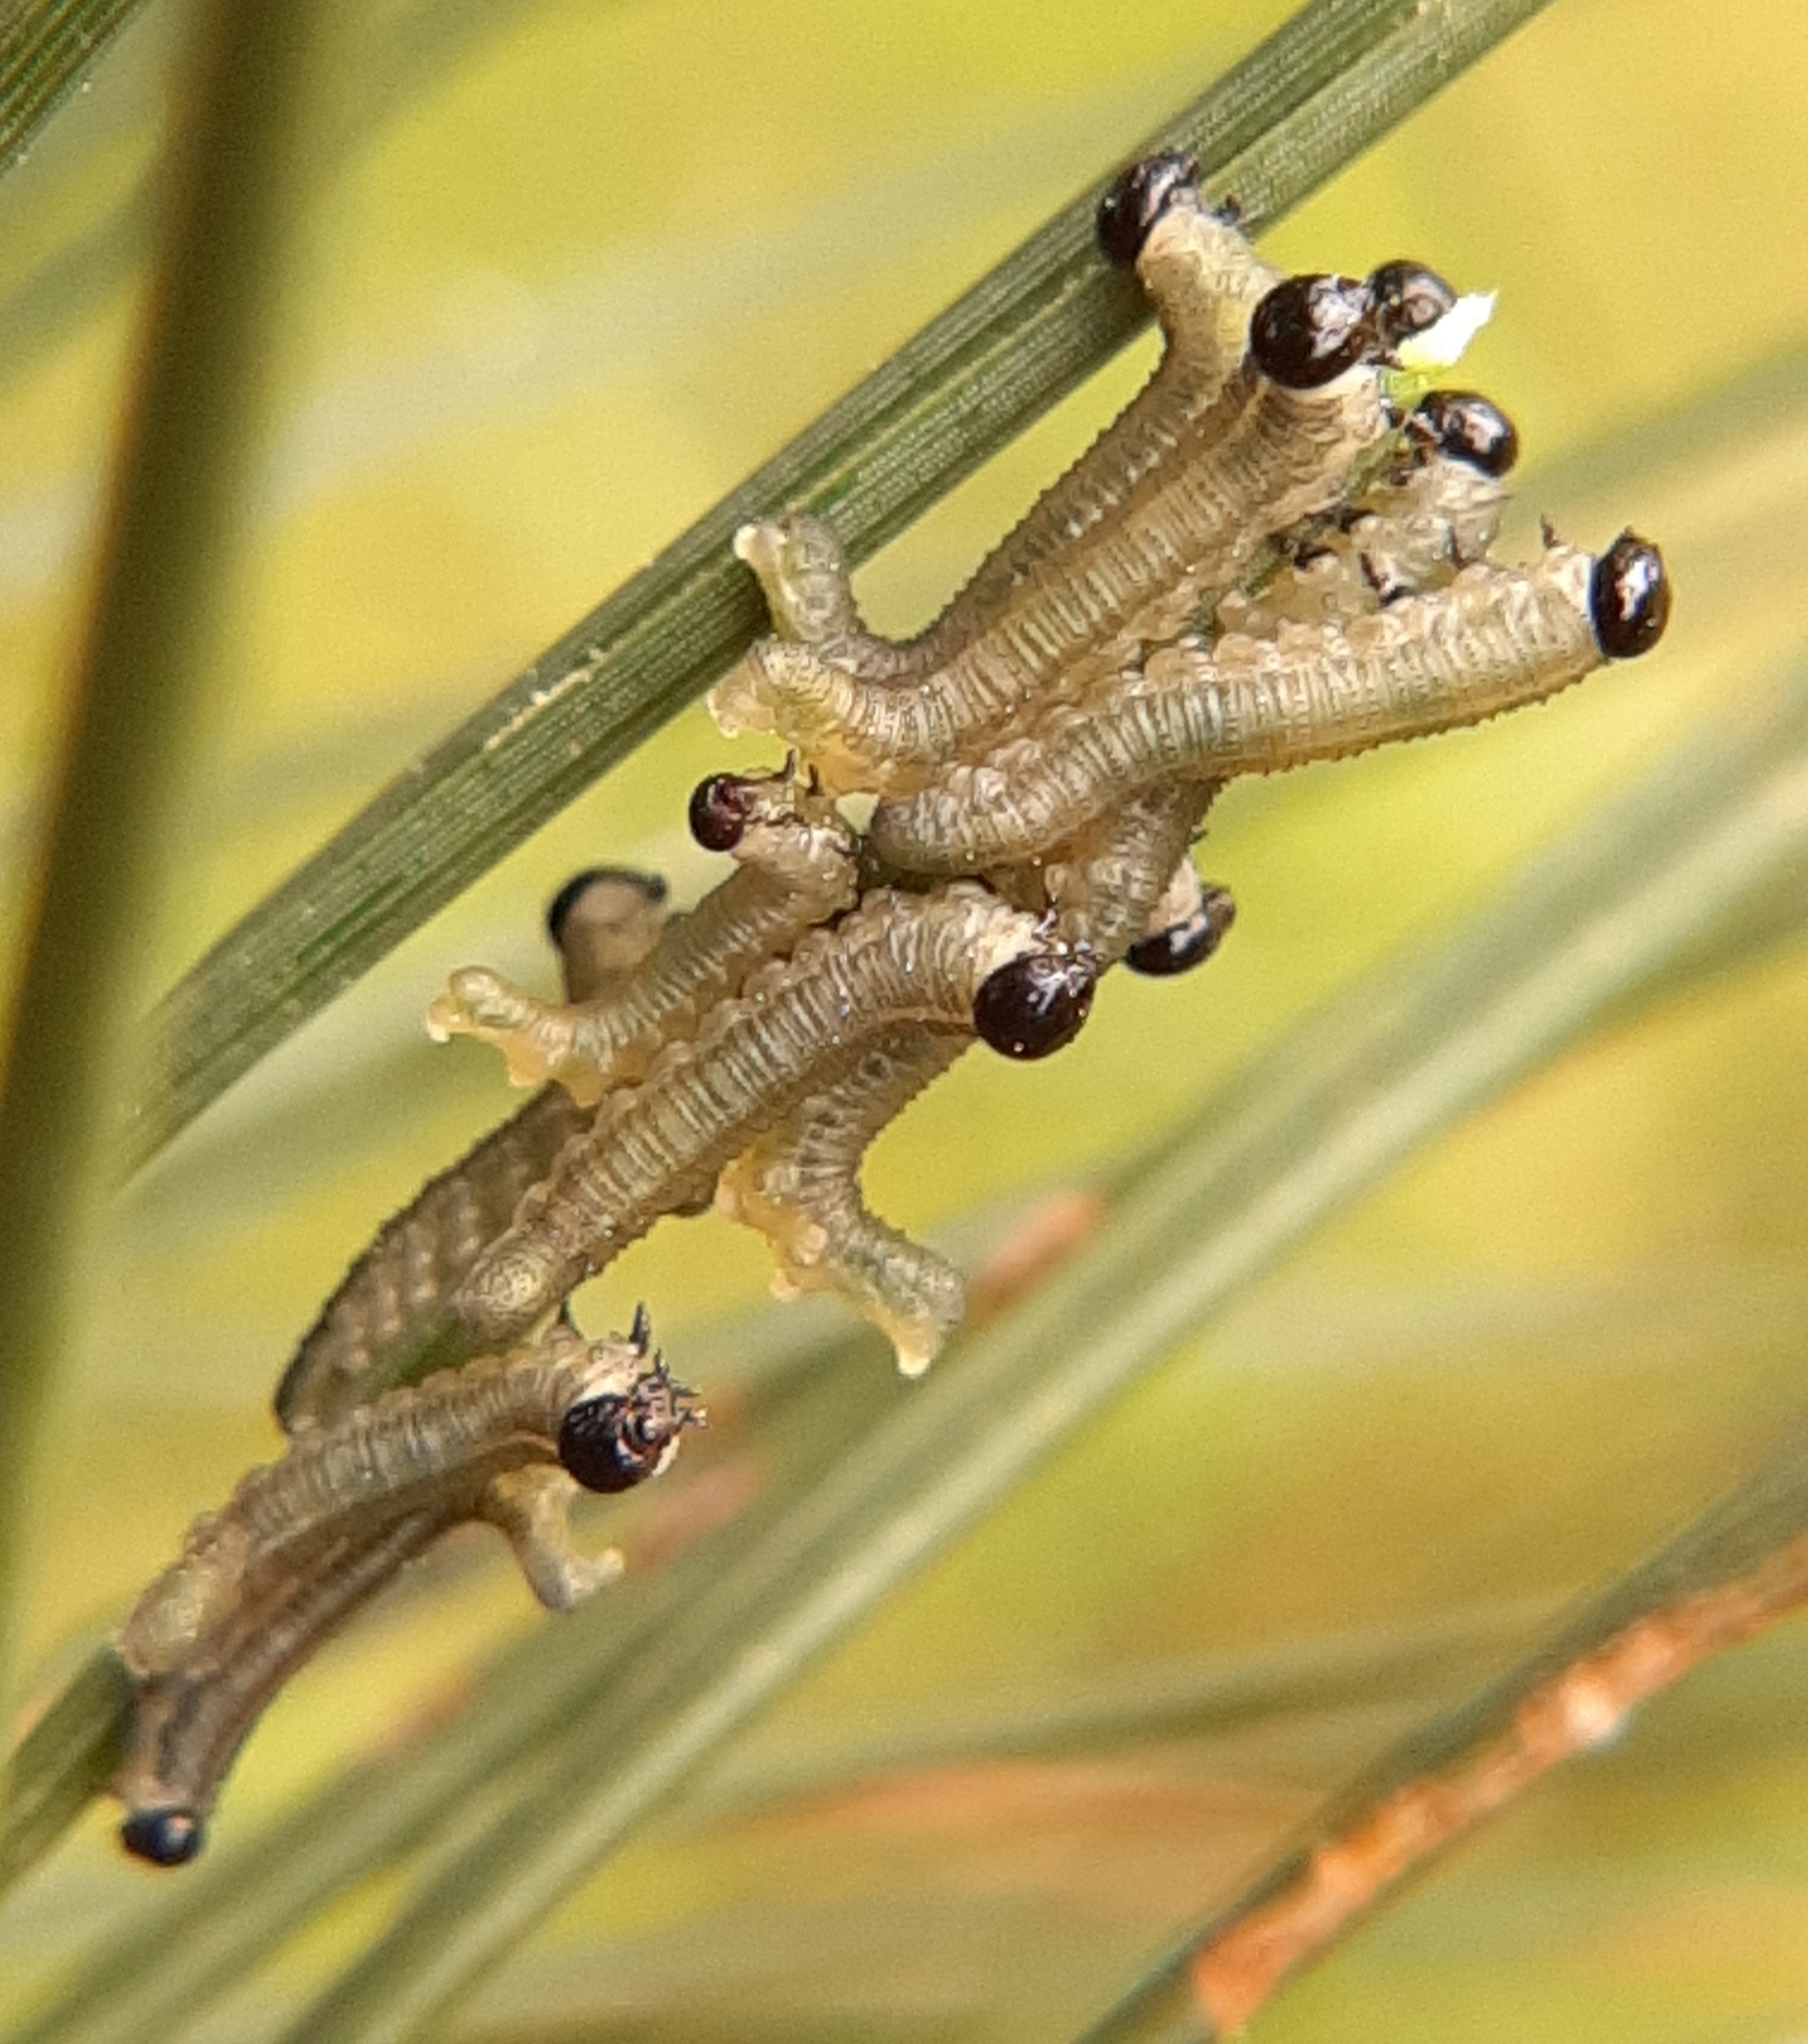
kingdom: Animalia
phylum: Arthropoda
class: Insecta
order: Hymenoptera
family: Diprionidae
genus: Neodiprion
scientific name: Neodiprion sertifer
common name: European pine sawfly
